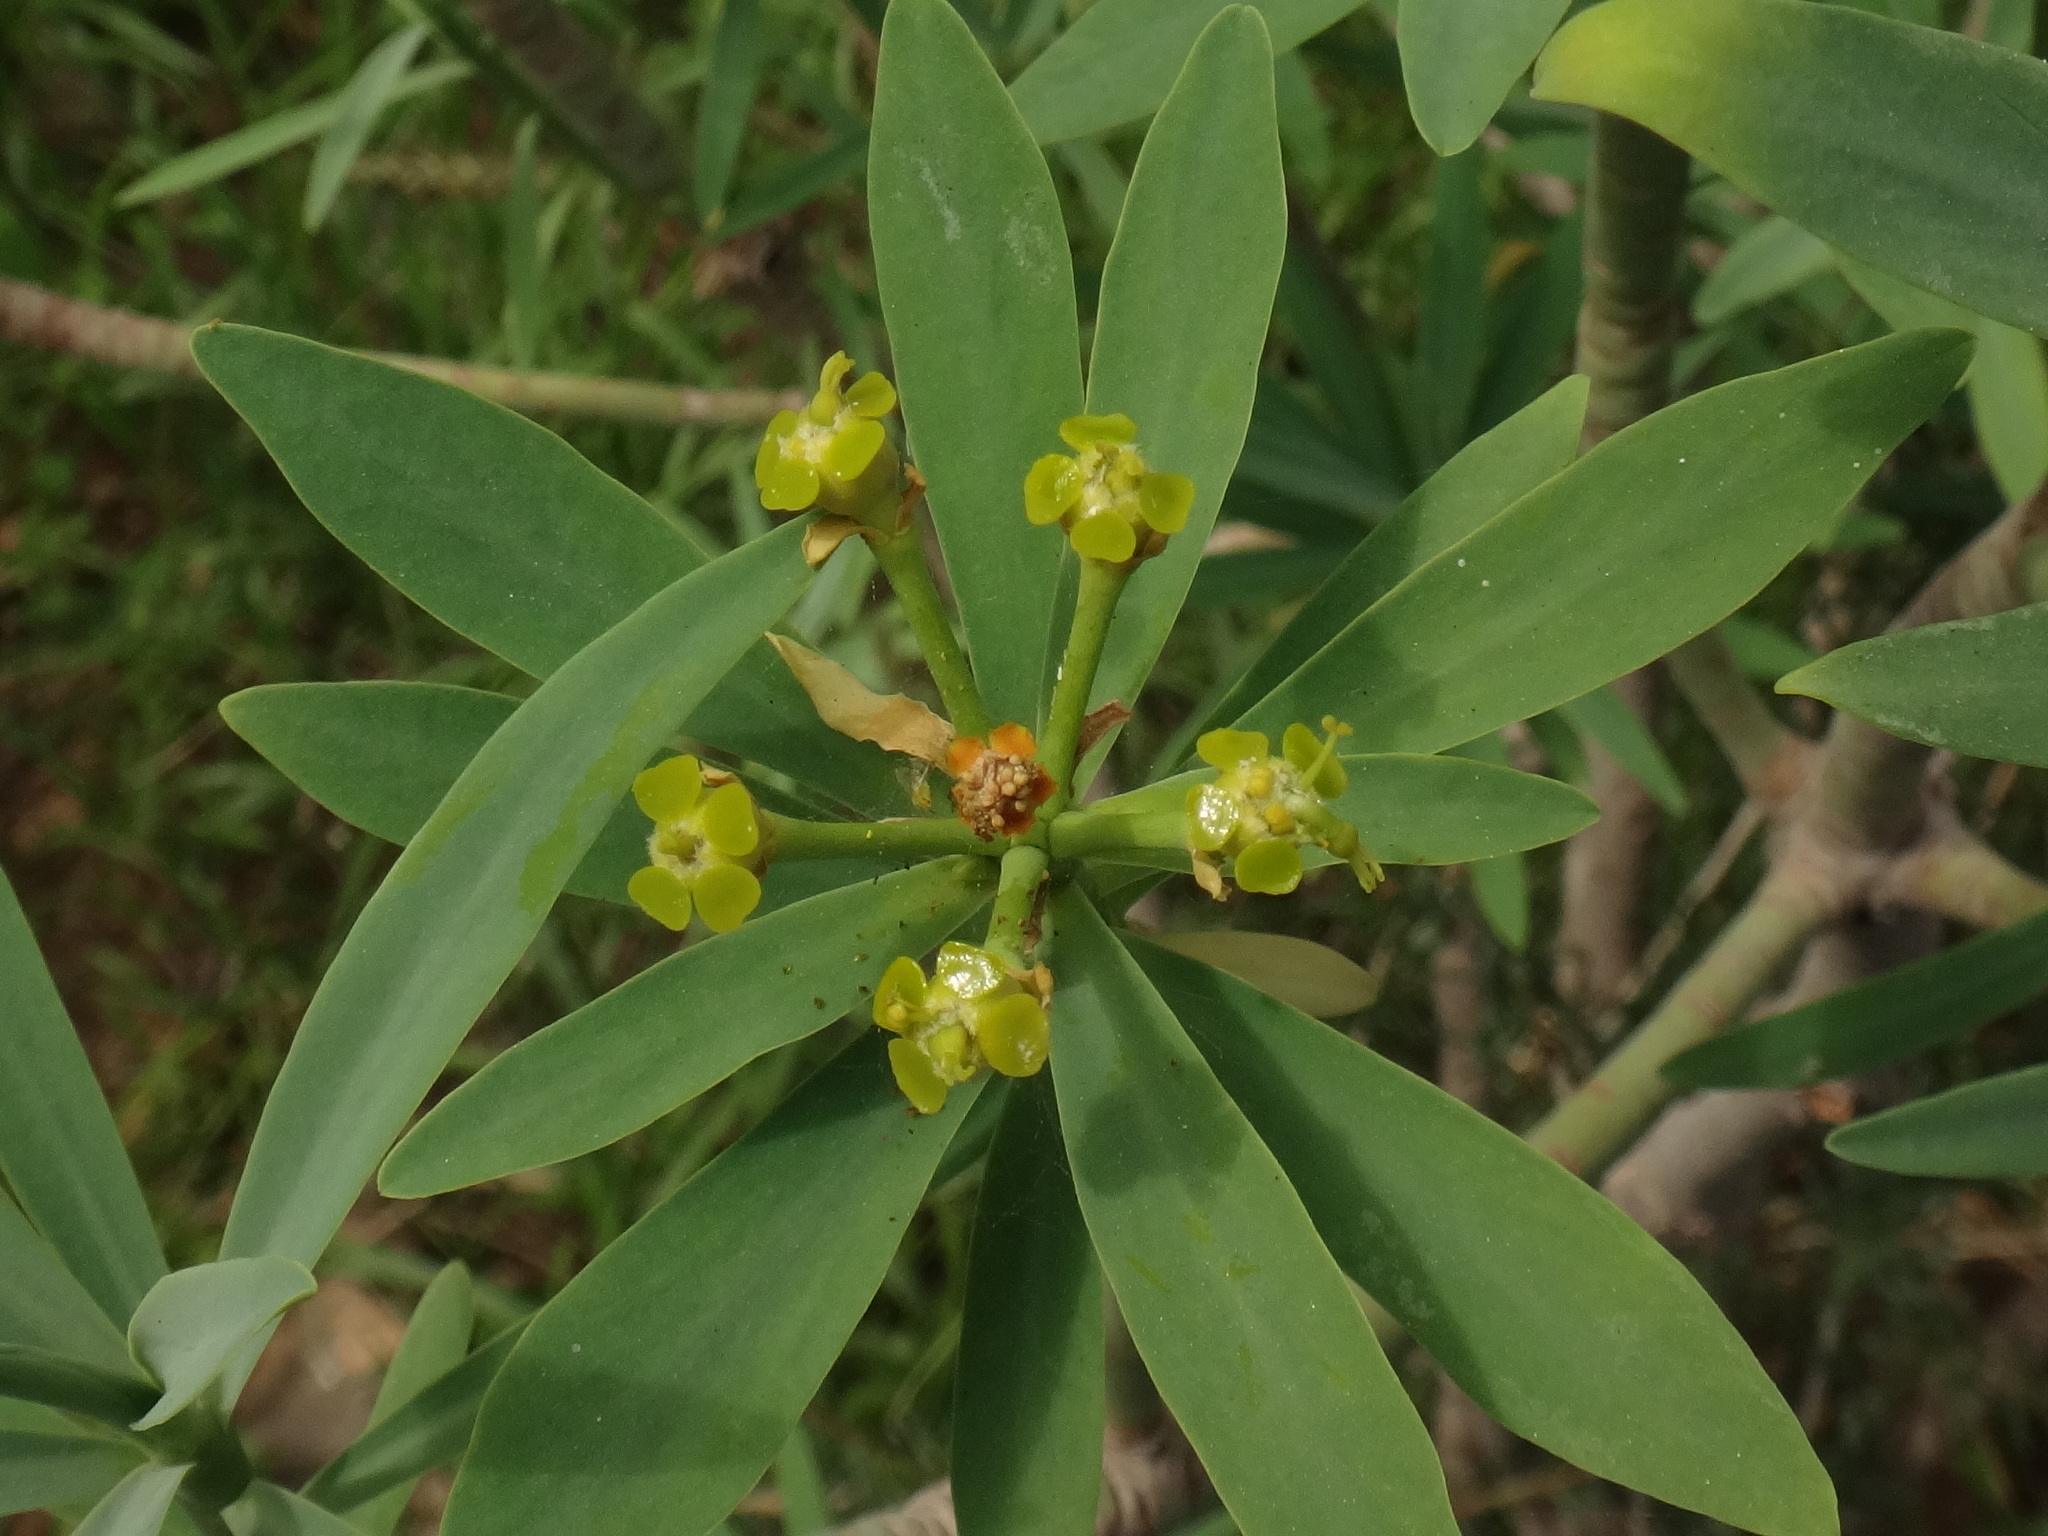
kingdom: Plantae
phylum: Tracheophyta
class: Magnoliopsida
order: Malpighiales
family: Euphorbiaceae
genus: Euphorbia
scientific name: Euphorbia lamarckii
